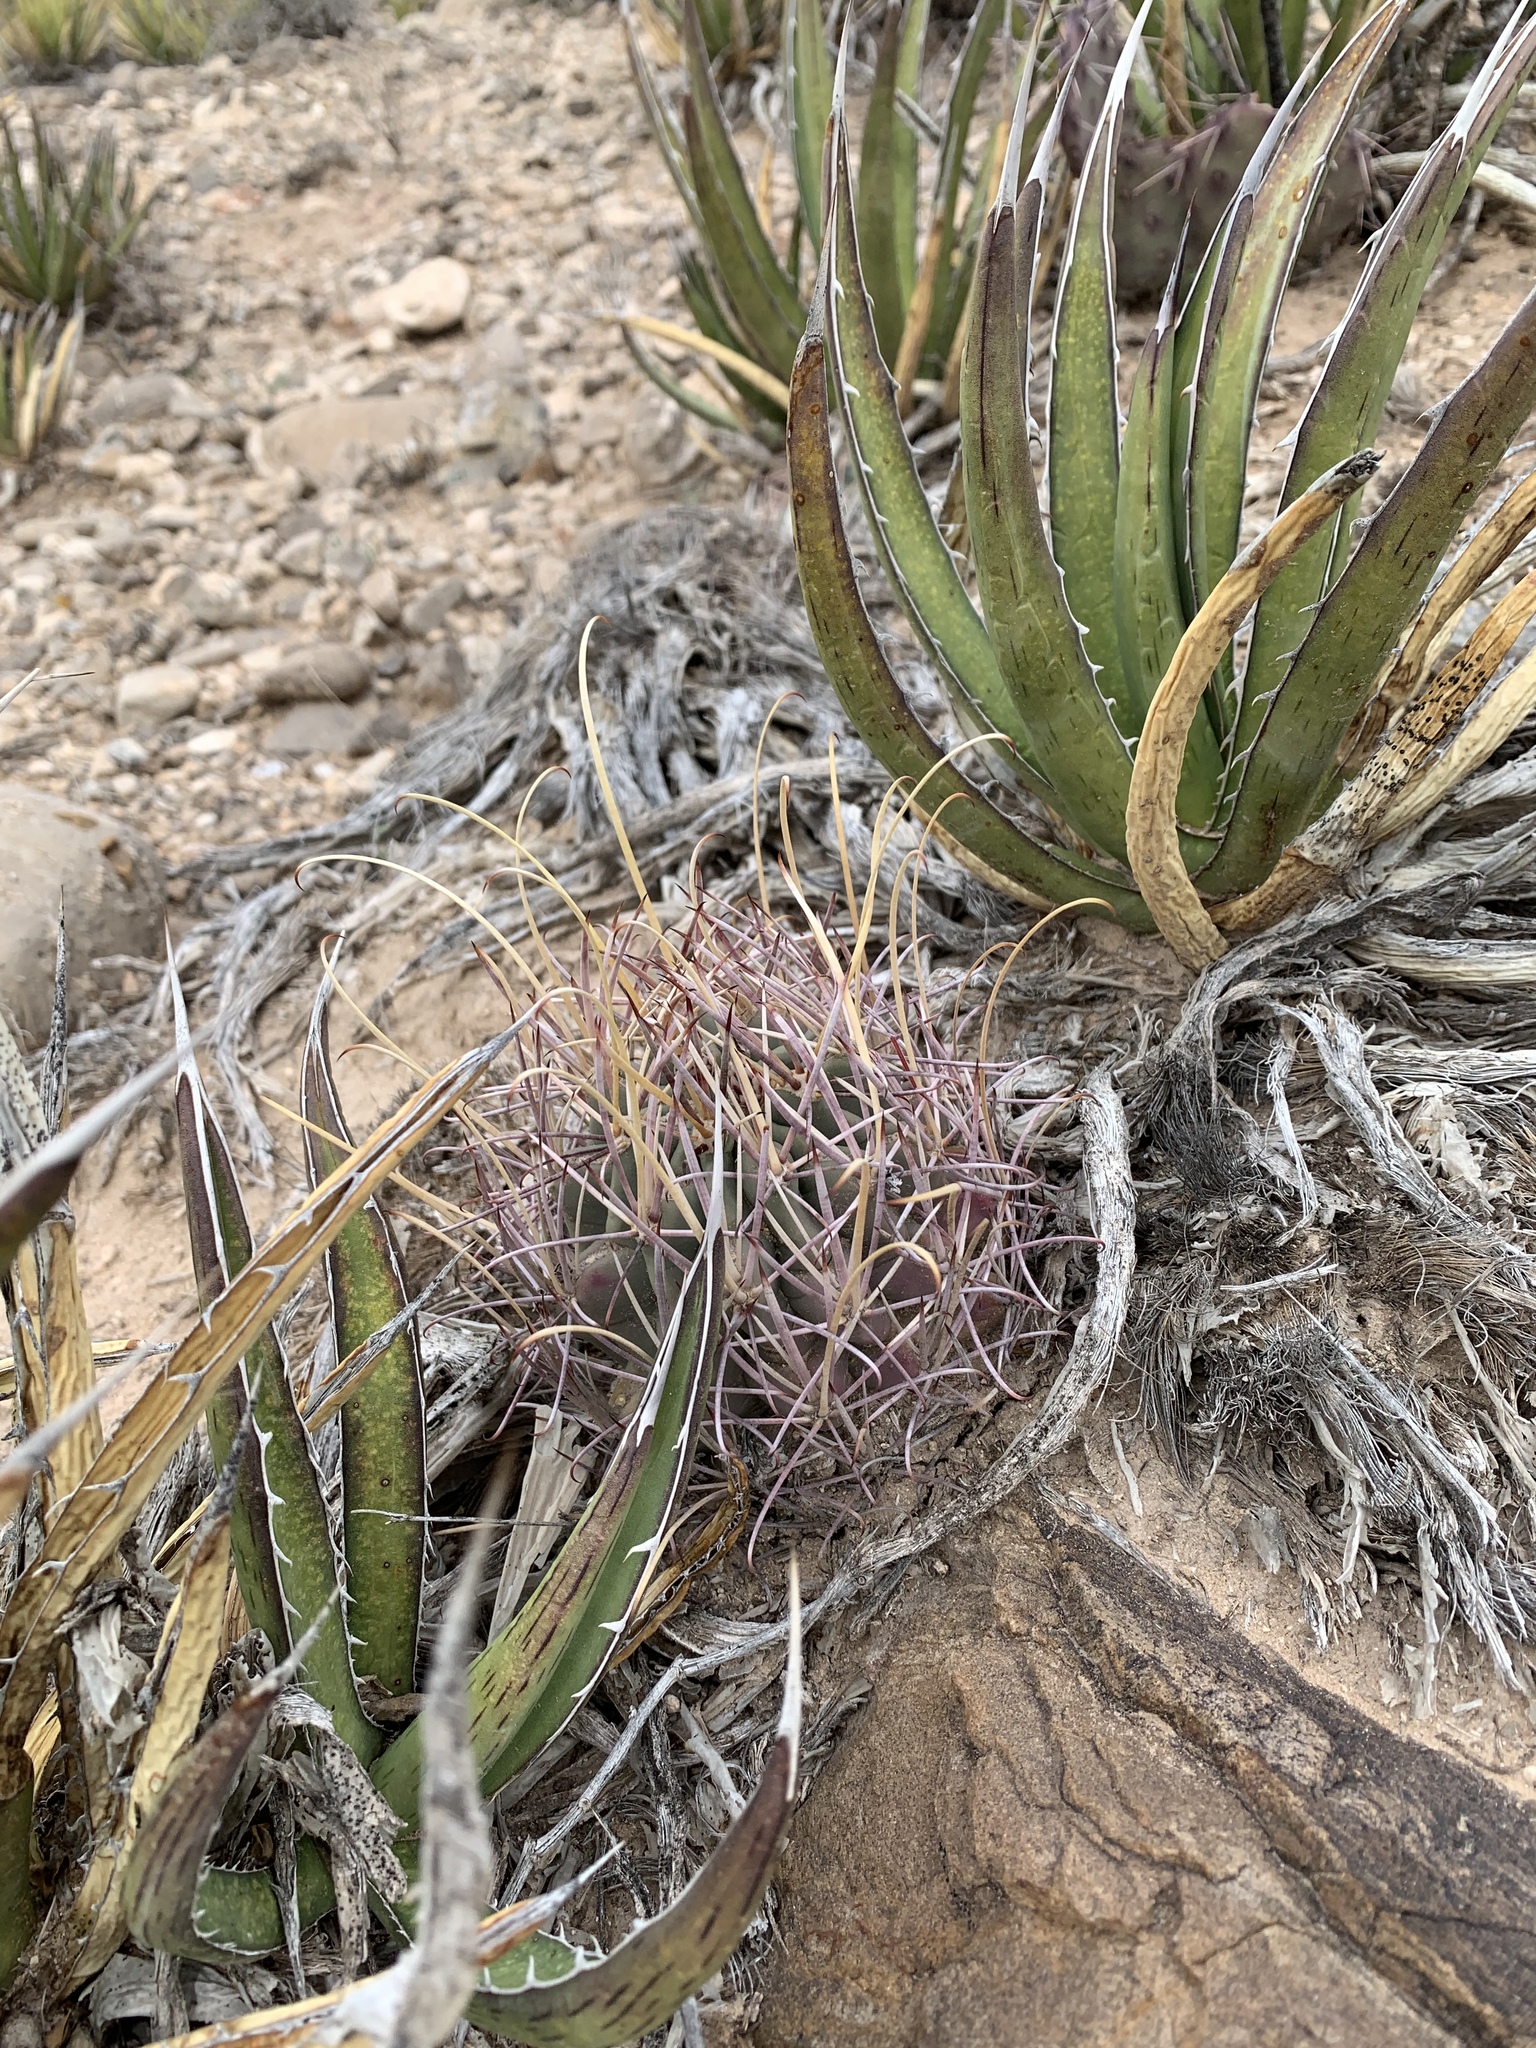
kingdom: Plantae
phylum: Tracheophyta
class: Magnoliopsida
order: Caryophyllales
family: Cactaceae
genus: Ferocactus
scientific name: Ferocactus uncinatus
